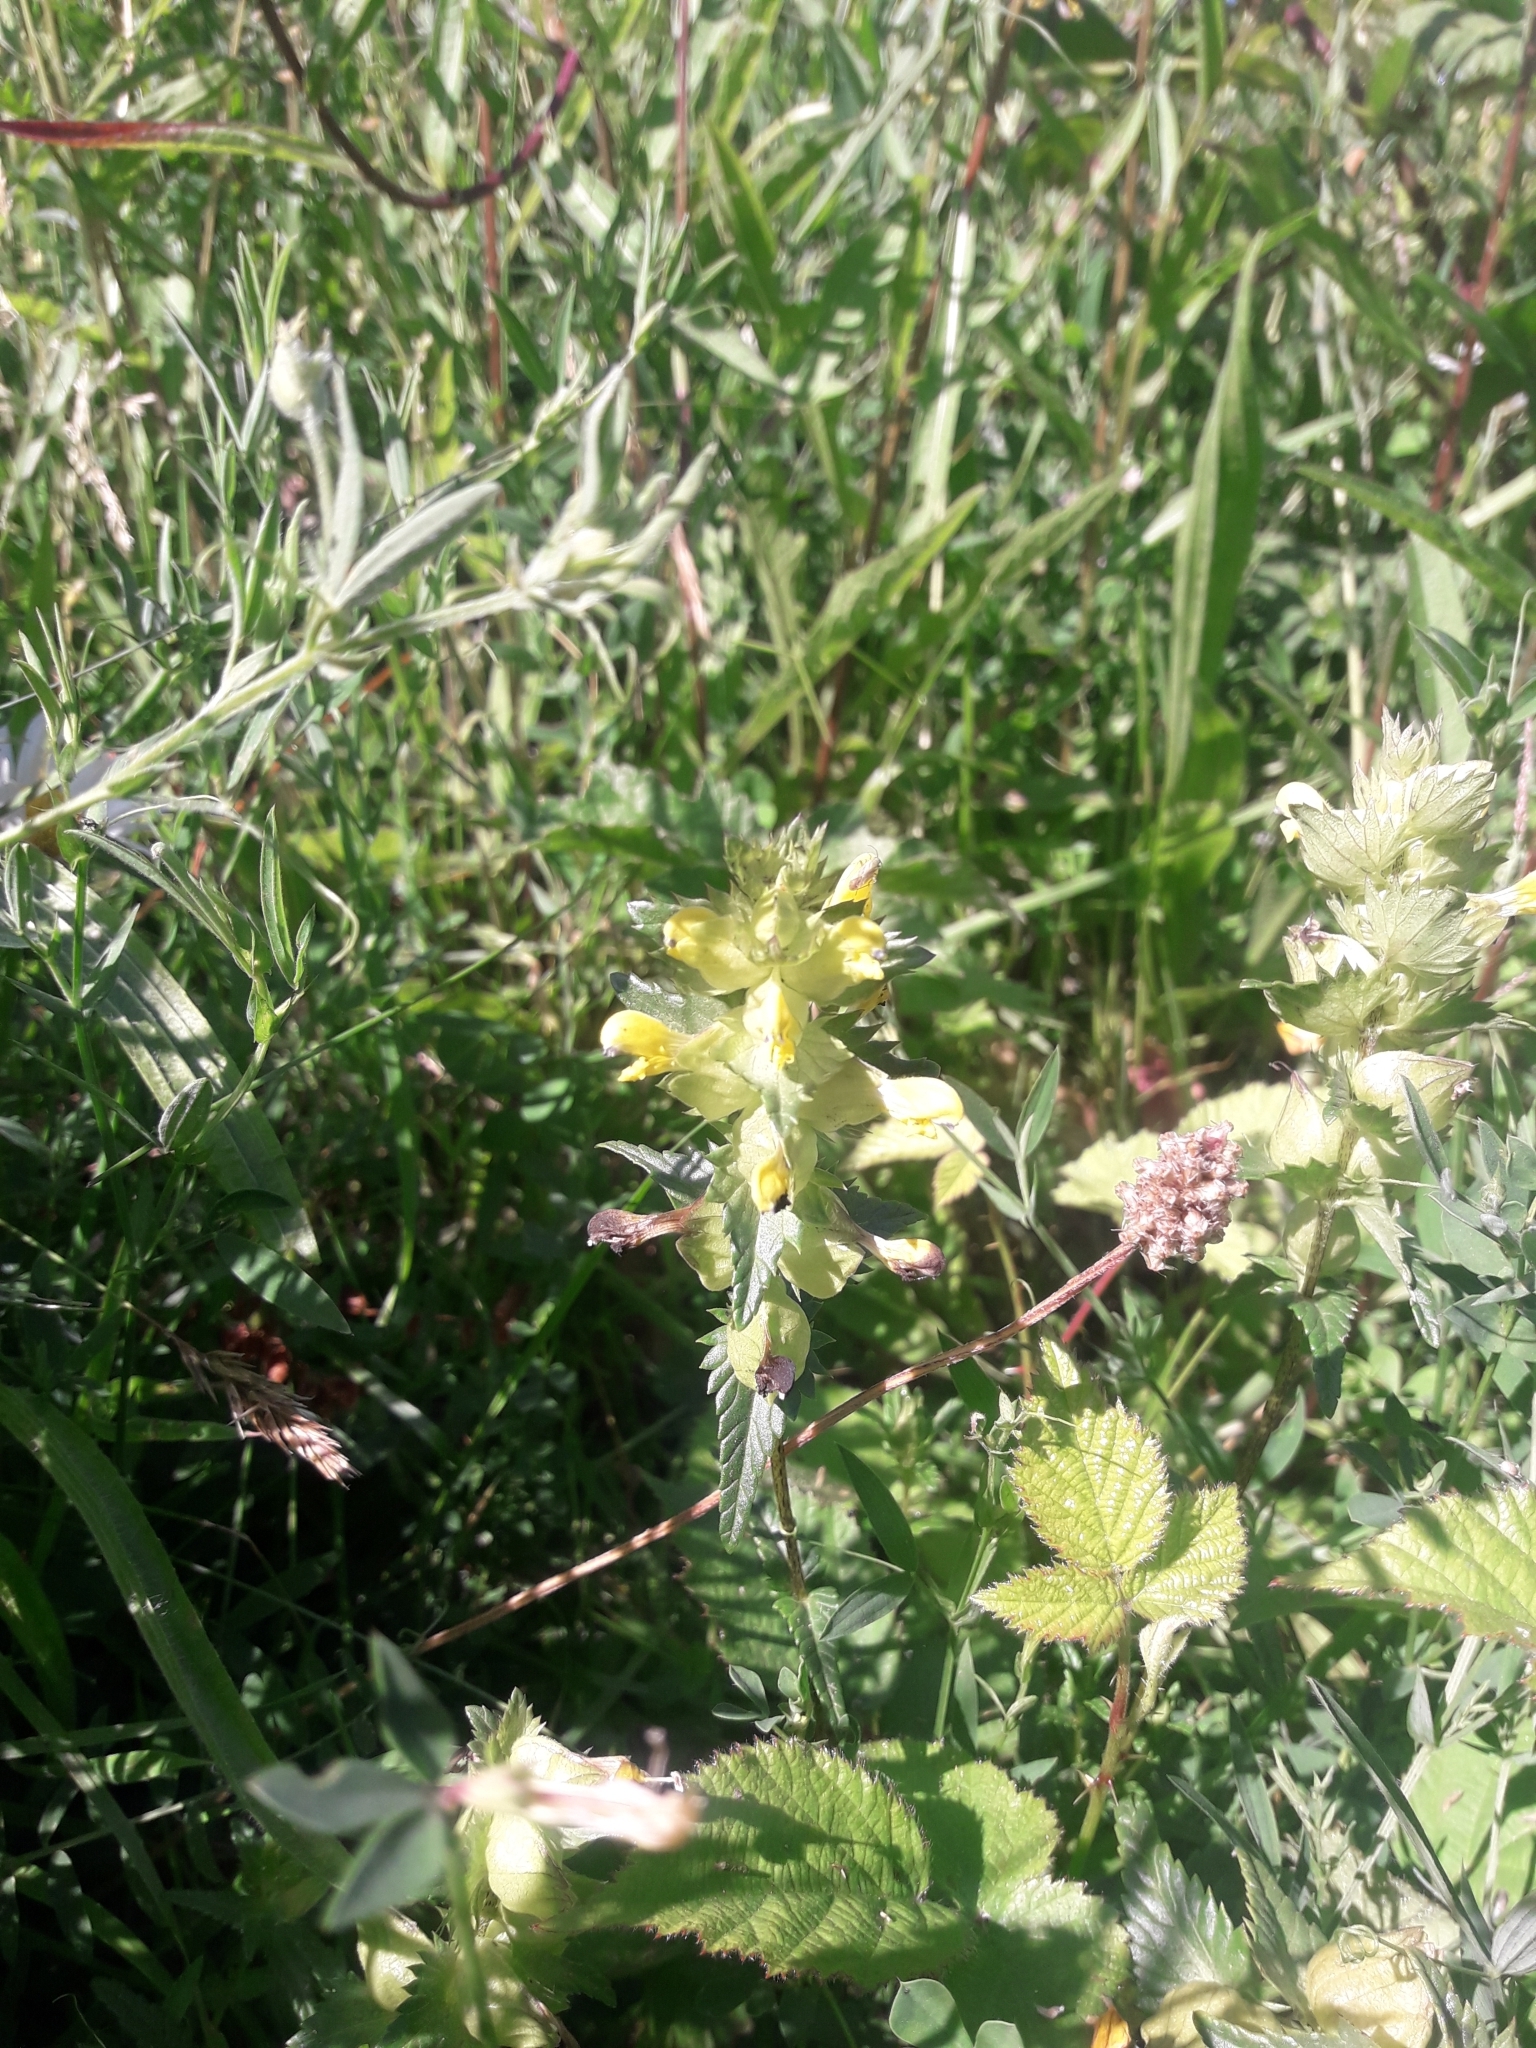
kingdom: Plantae
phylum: Tracheophyta
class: Magnoliopsida
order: Lamiales
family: Orobanchaceae
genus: Rhinanthus
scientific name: Rhinanthus minor
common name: Yellow-rattle
